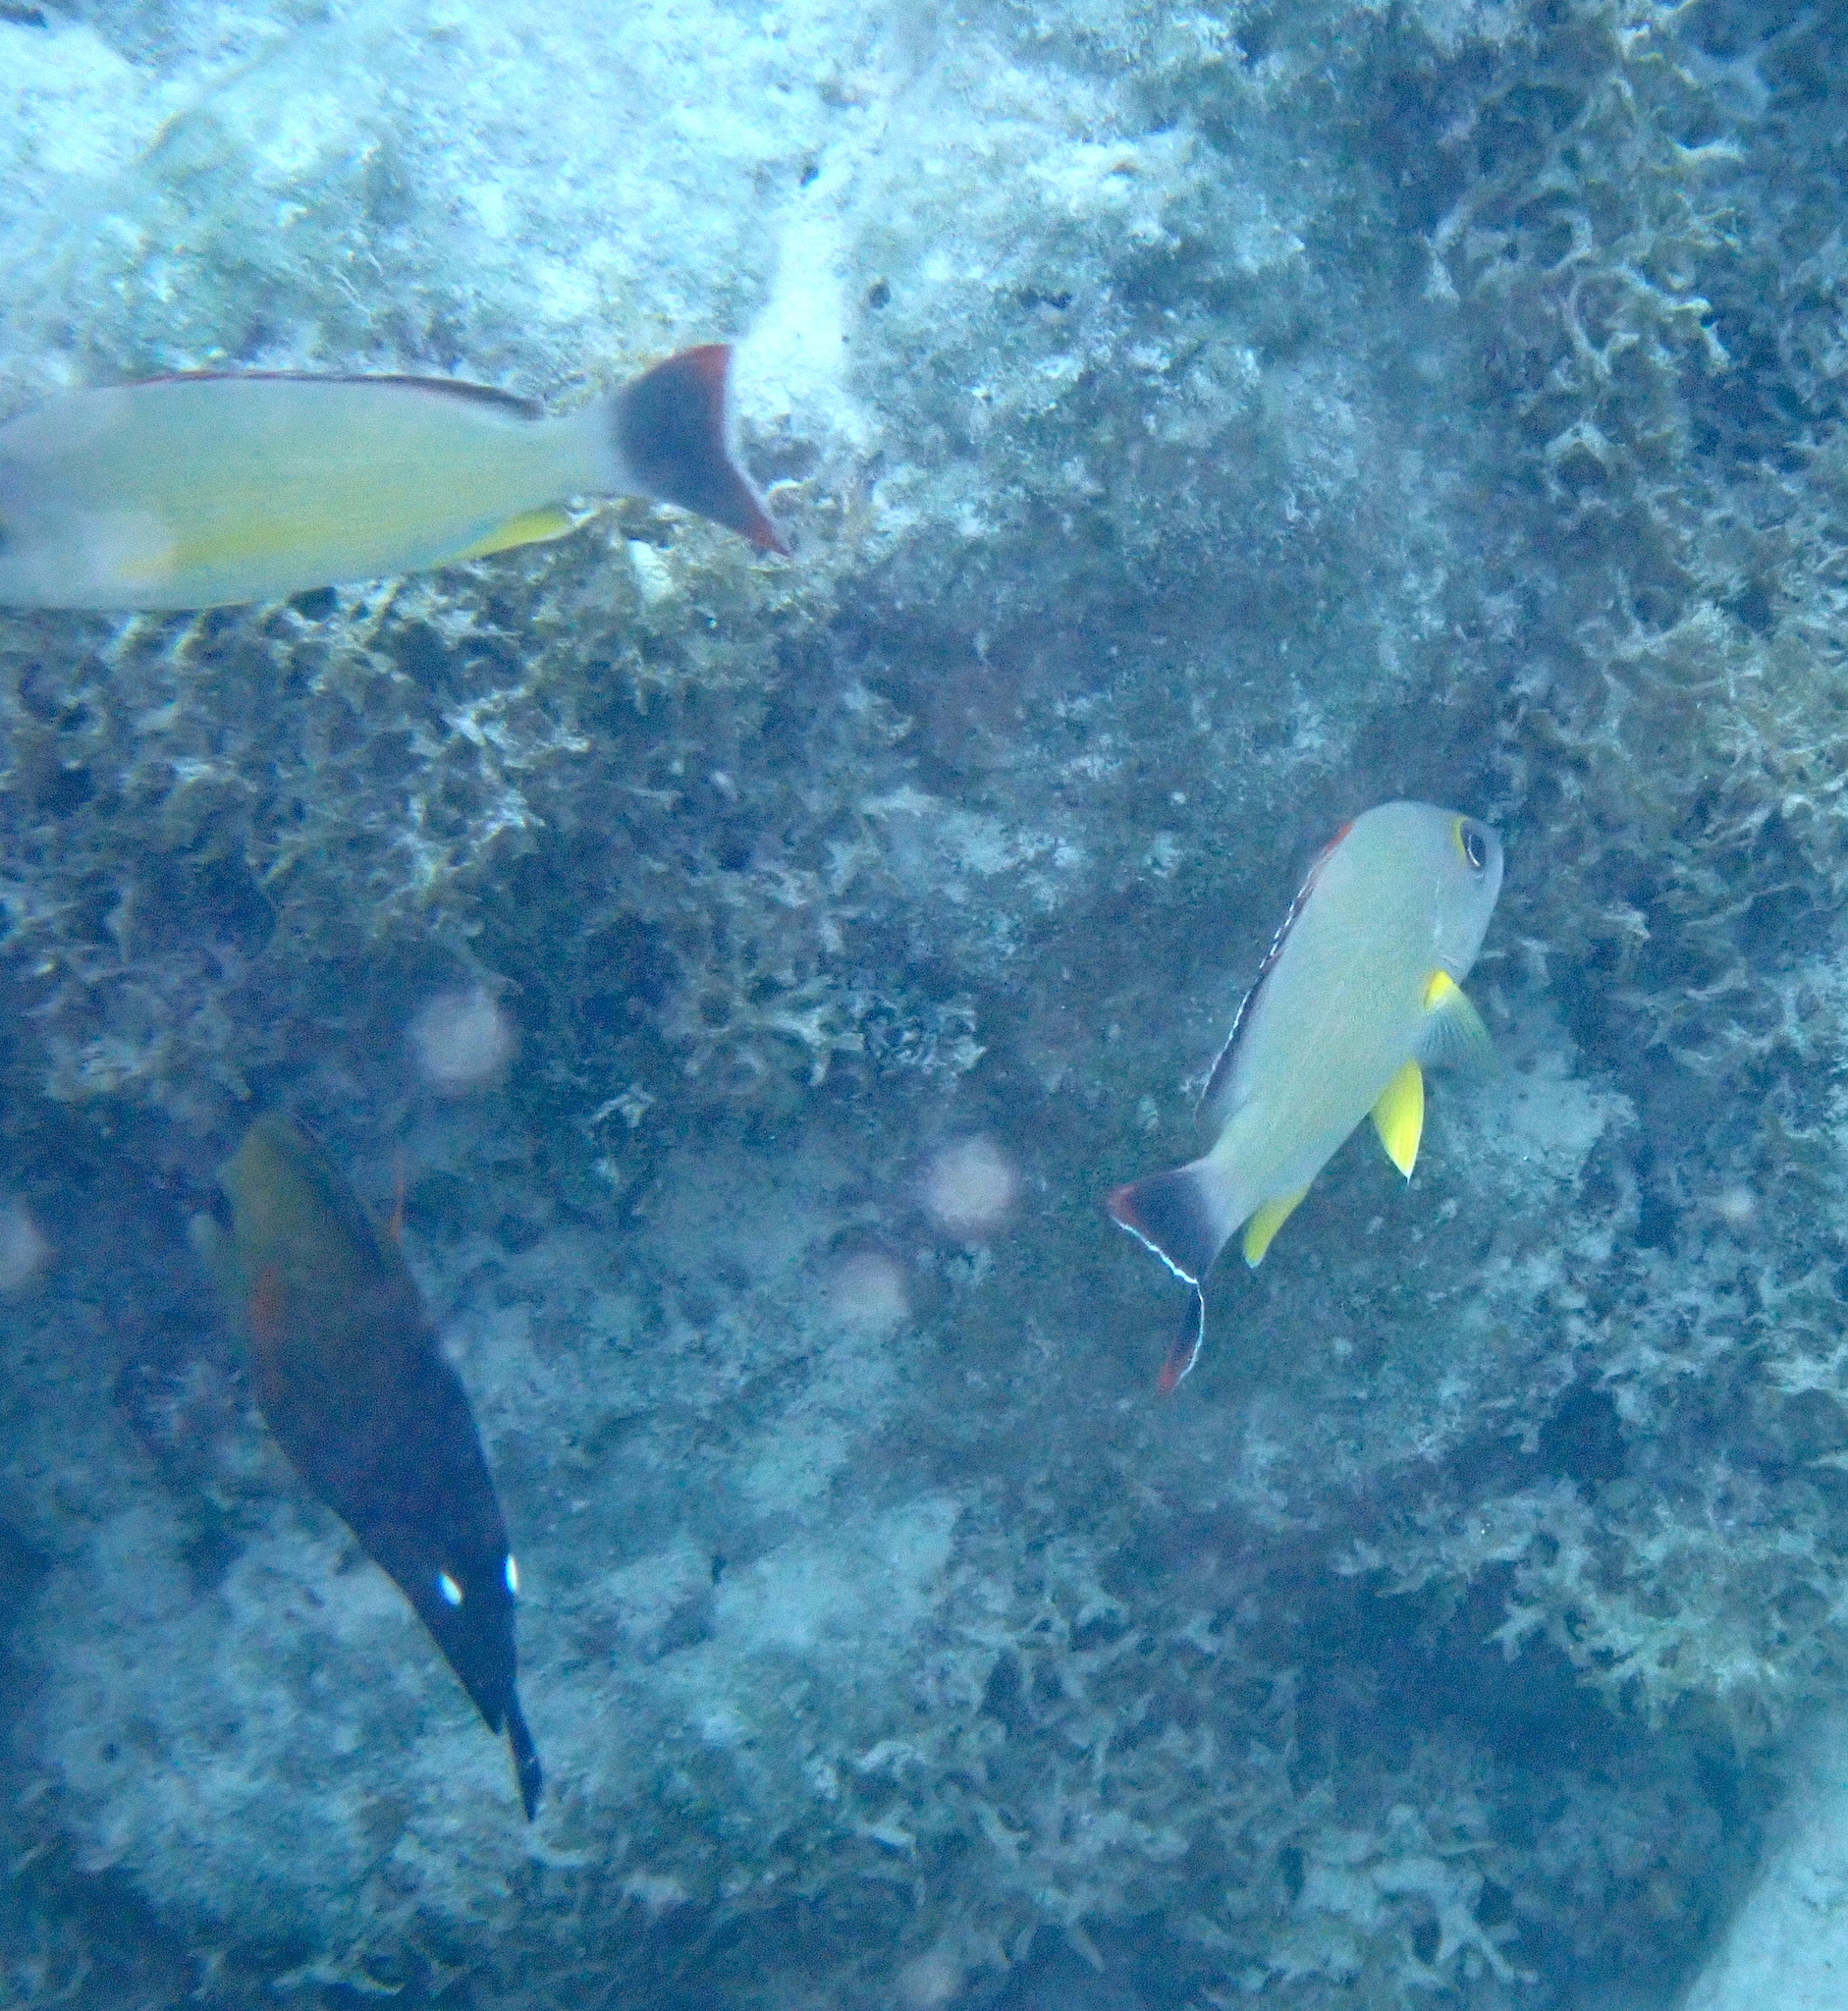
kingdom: Animalia
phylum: Chordata
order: Perciformes
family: Lutjanidae
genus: Lutjanus
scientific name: Lutjanus fulvus
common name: Blacktail snapper
